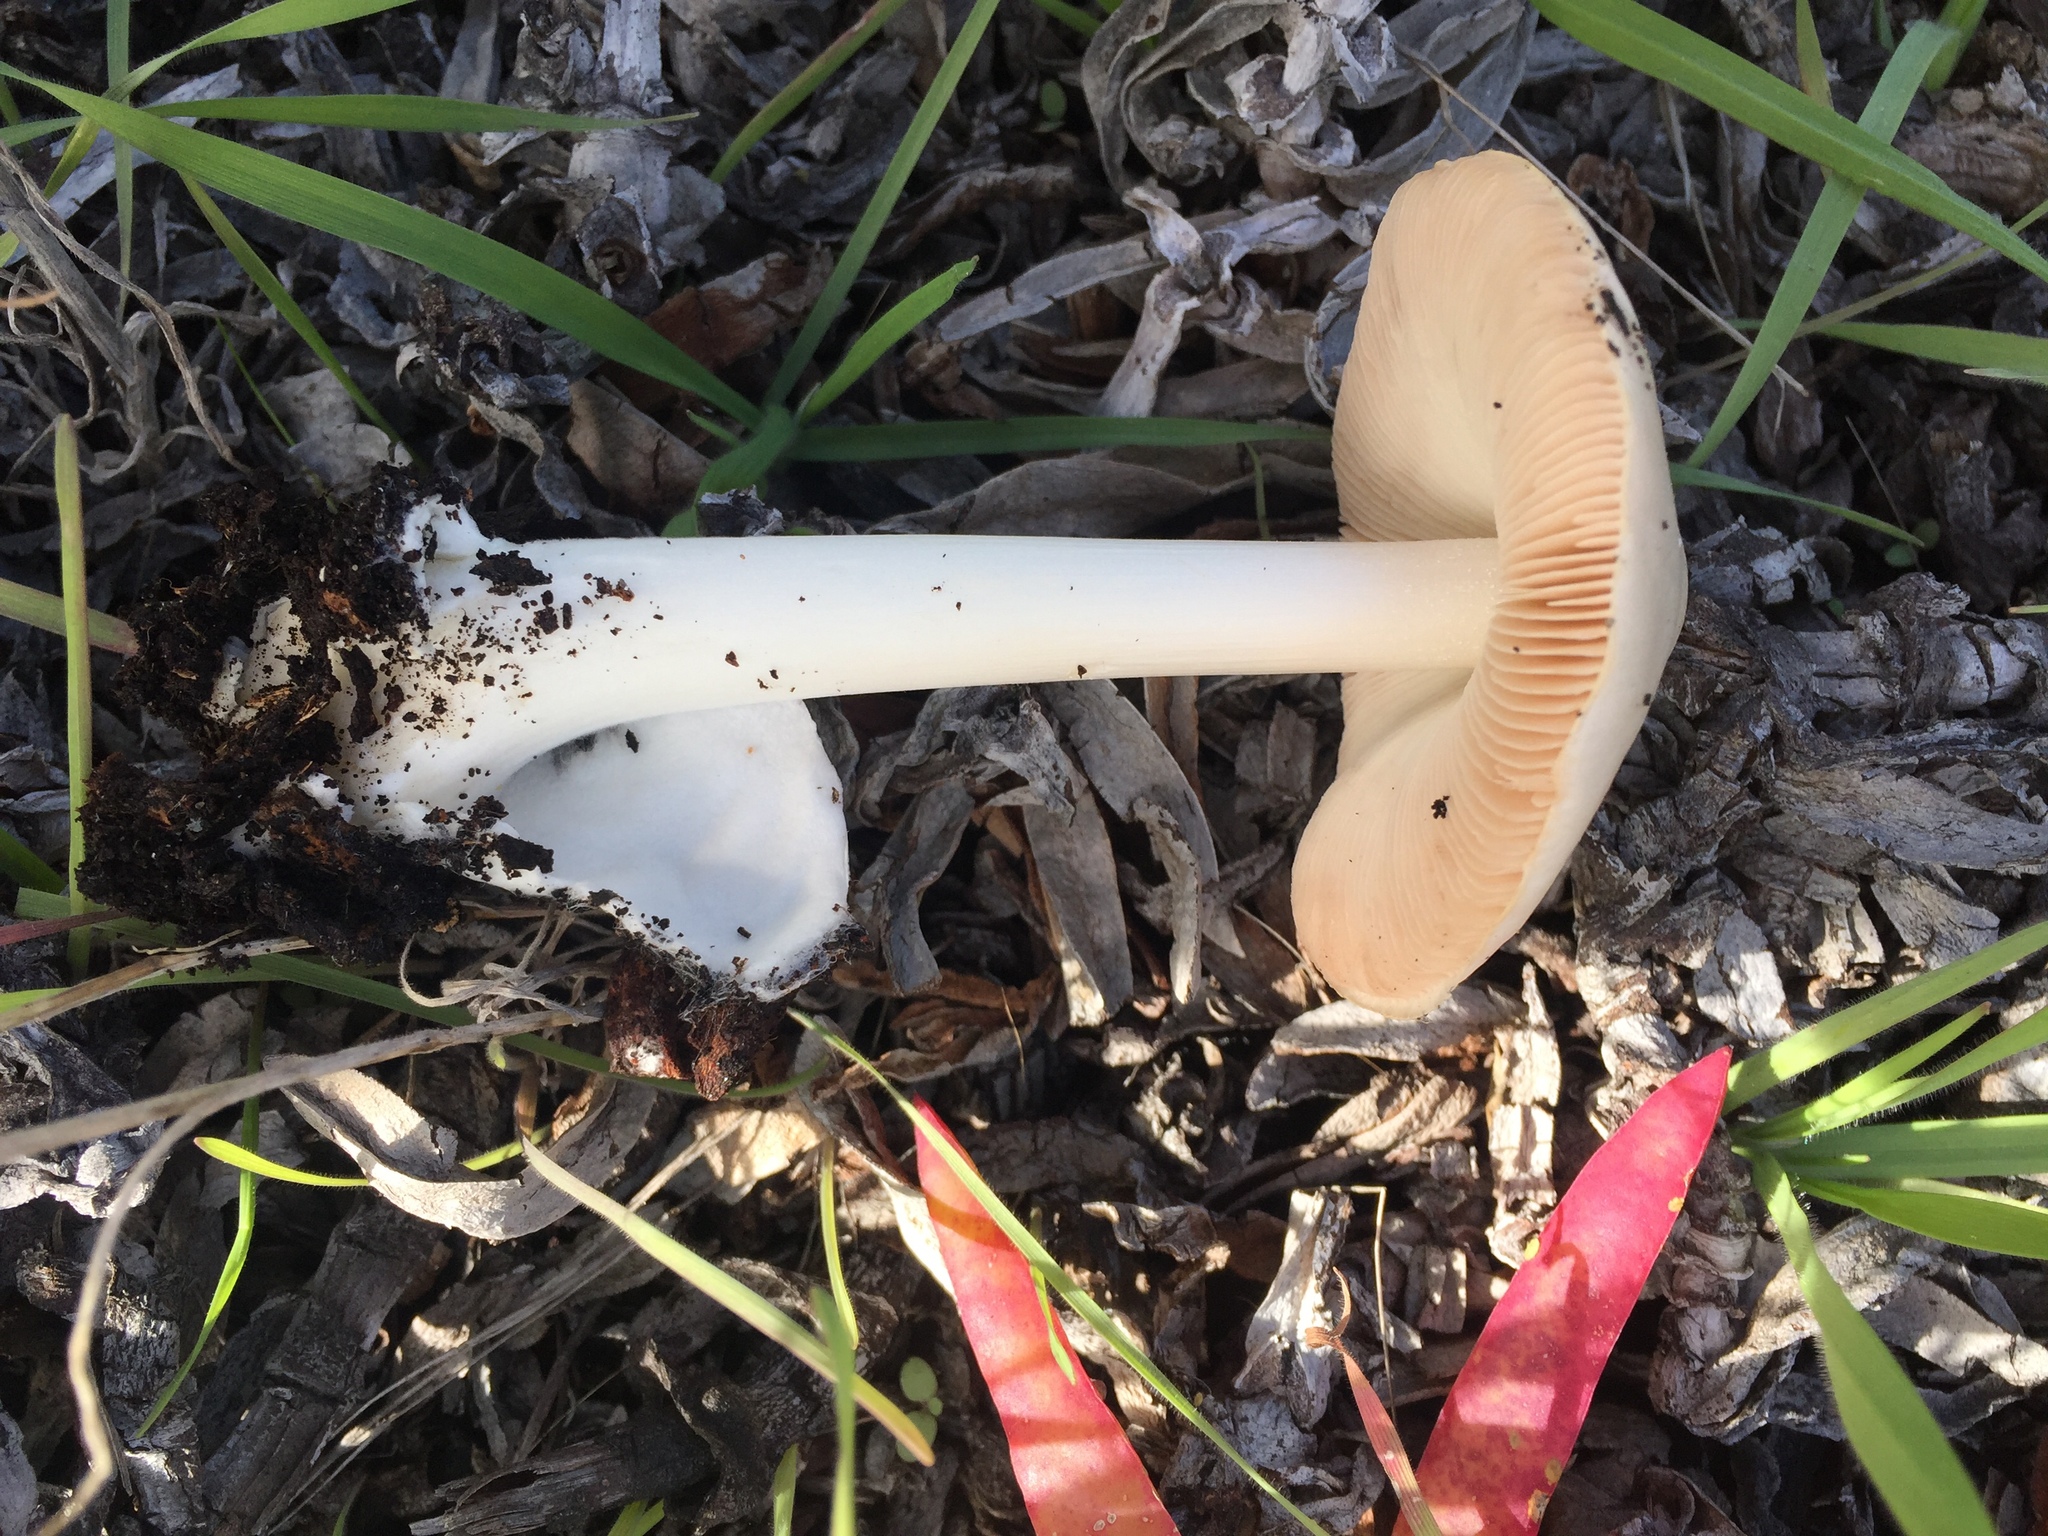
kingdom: Fungi
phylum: Basidiomycota
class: Agaricomycetes
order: Agaricales
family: Pluteaceae
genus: Volvopluteus
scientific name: Volvopluteus gloiocephalus
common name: Stubble rosegill
